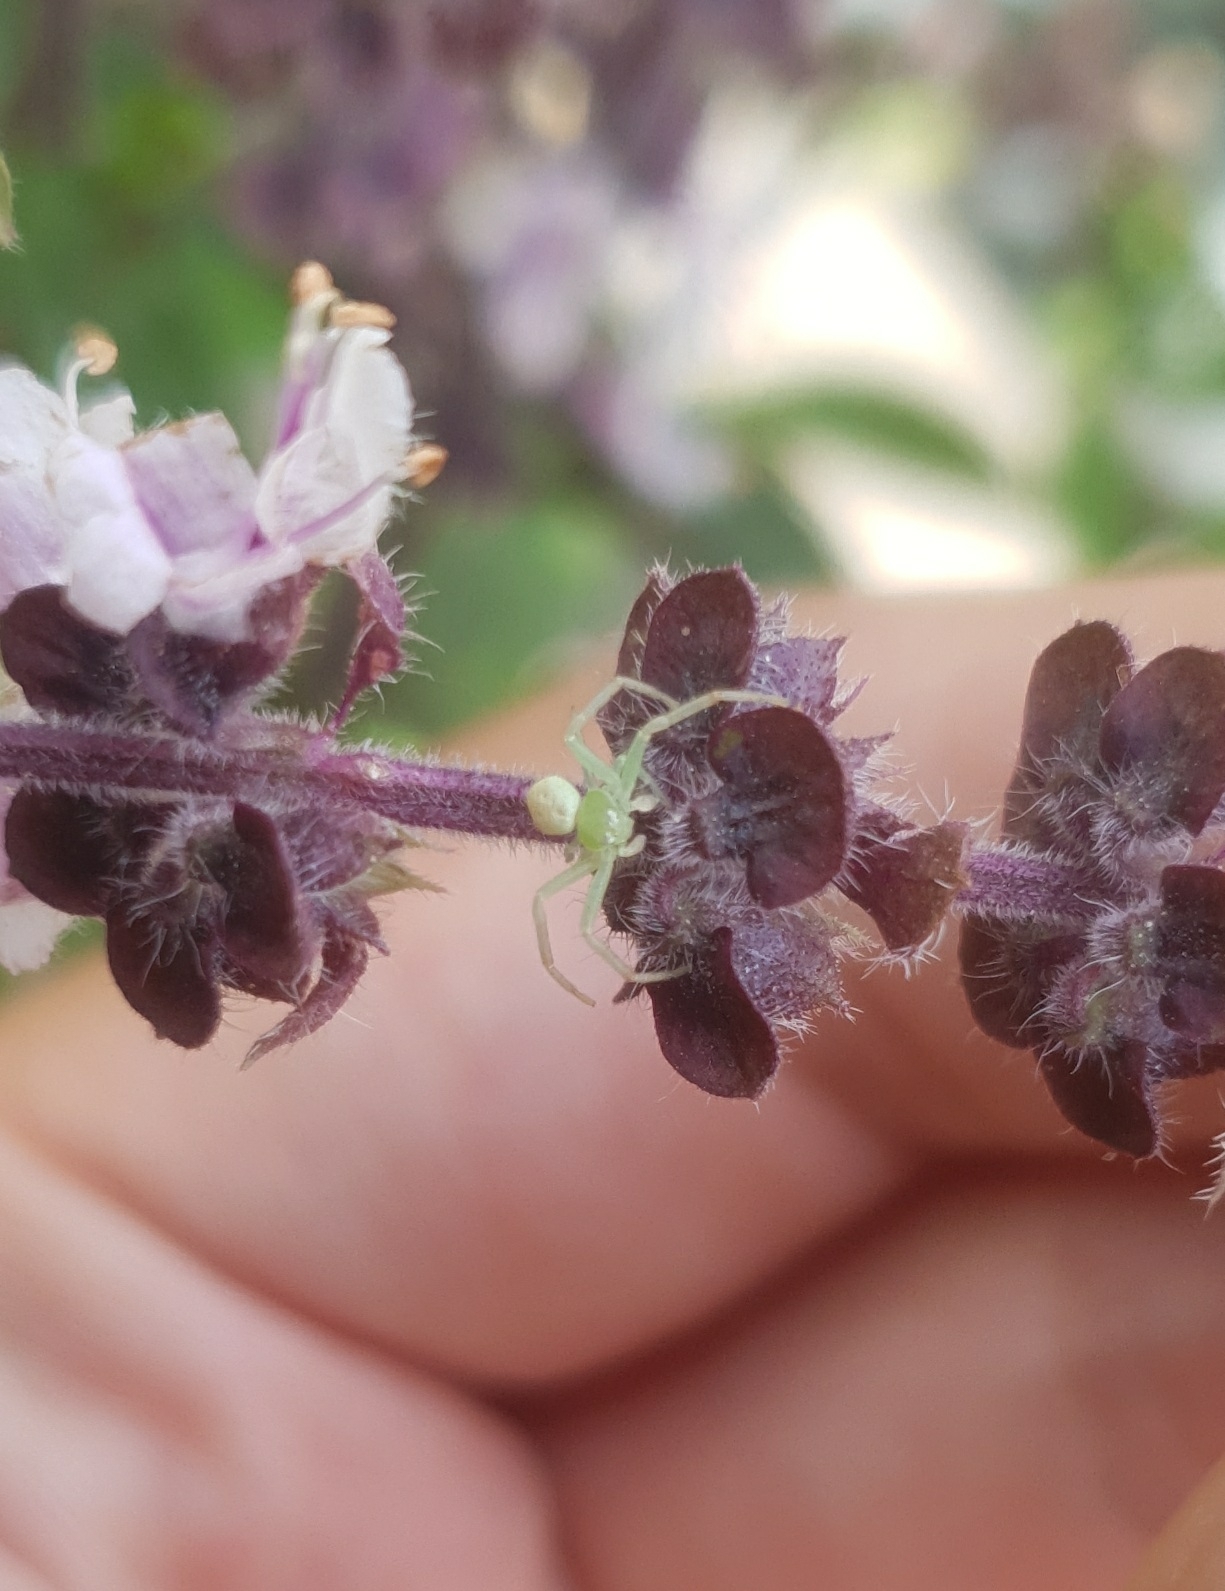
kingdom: Animalia
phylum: Arthropoda
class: Arachnida
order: Araneae
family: Thomisidae
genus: Ebrechtella
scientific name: Ebrechtella tricuspidata
